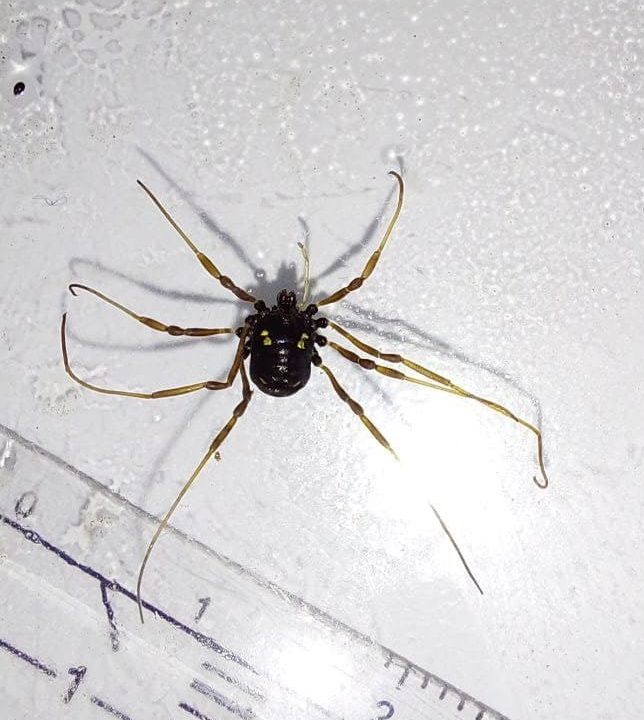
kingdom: Animalia
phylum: Arthropoda
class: Arachnida
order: Opiliones
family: Nemastomatidae
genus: Paranemastoma
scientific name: Paranemastoma quadripunctatum
